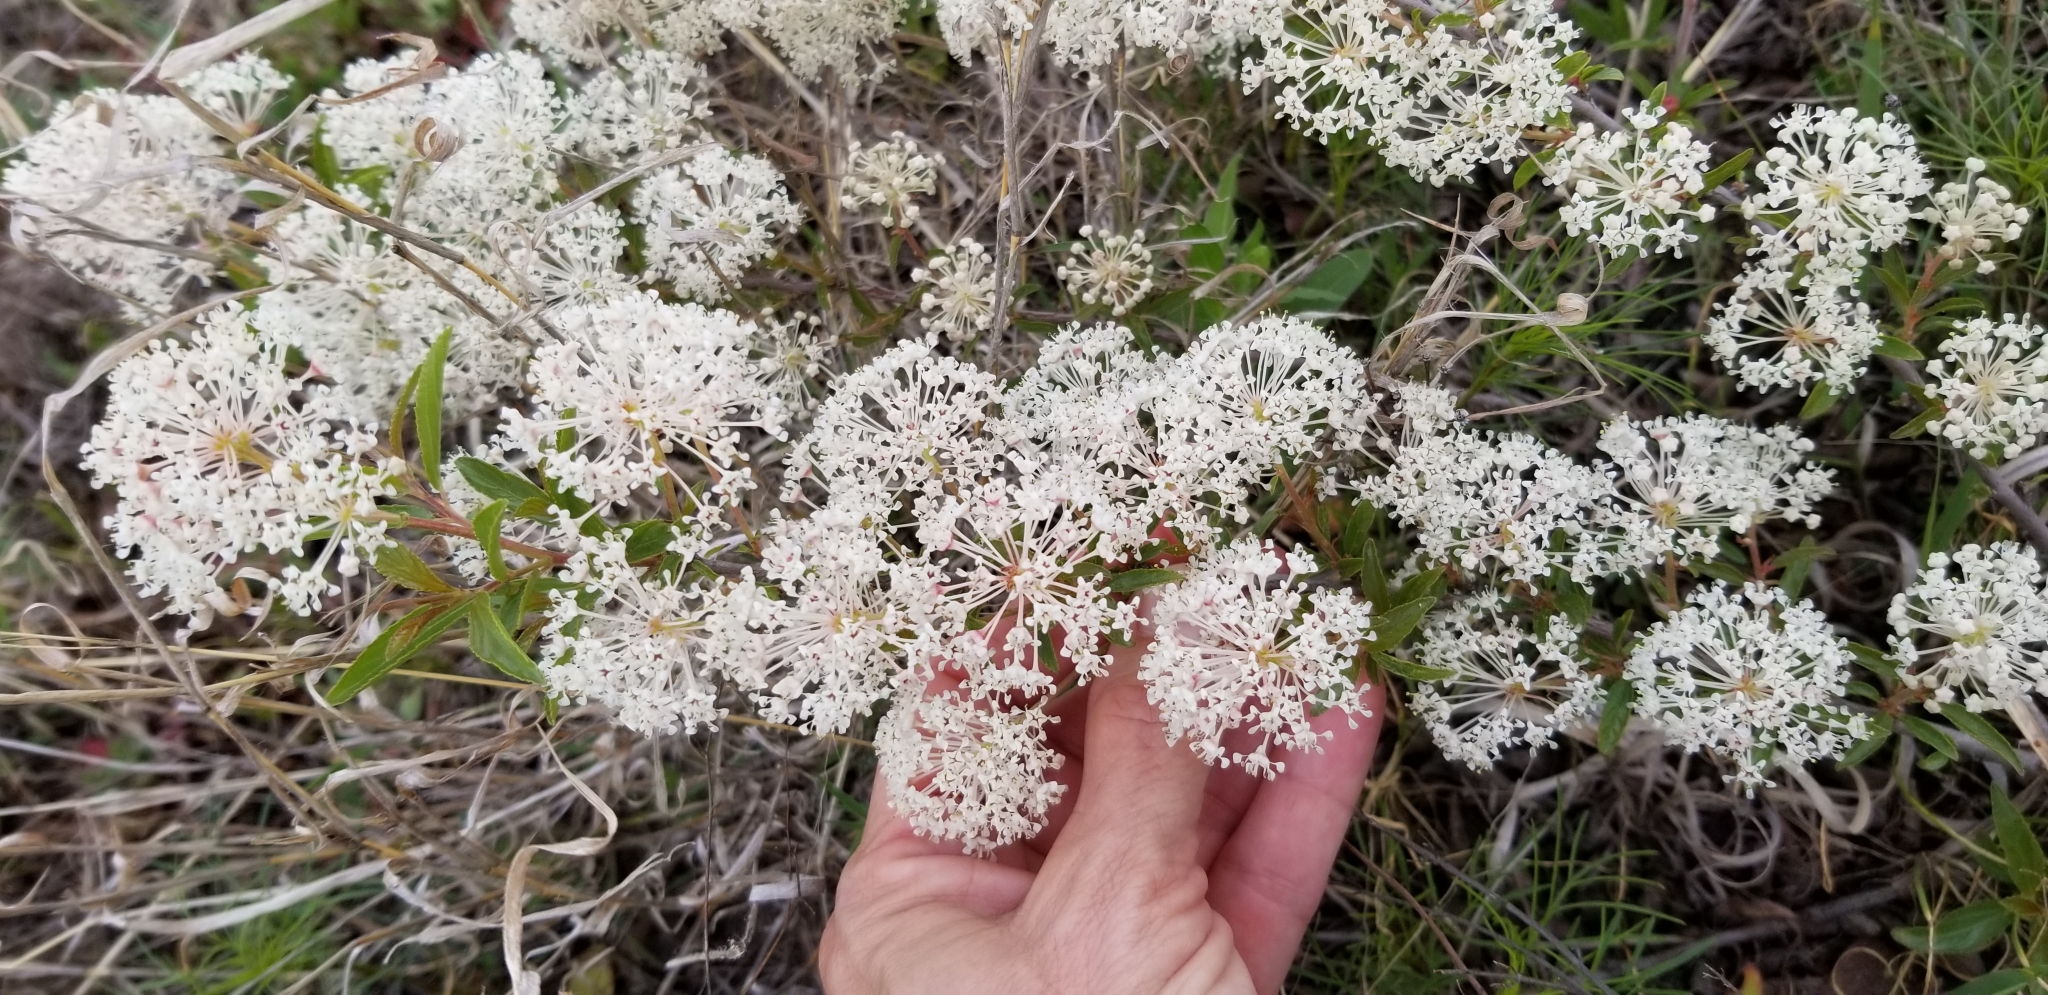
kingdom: Plantae
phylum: Tracheophyta
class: Magnoliopsida
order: Rosales
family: Rhamnaceae
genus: Ceanothus
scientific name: Ceanothus herbaceus
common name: Inland ceanothus
